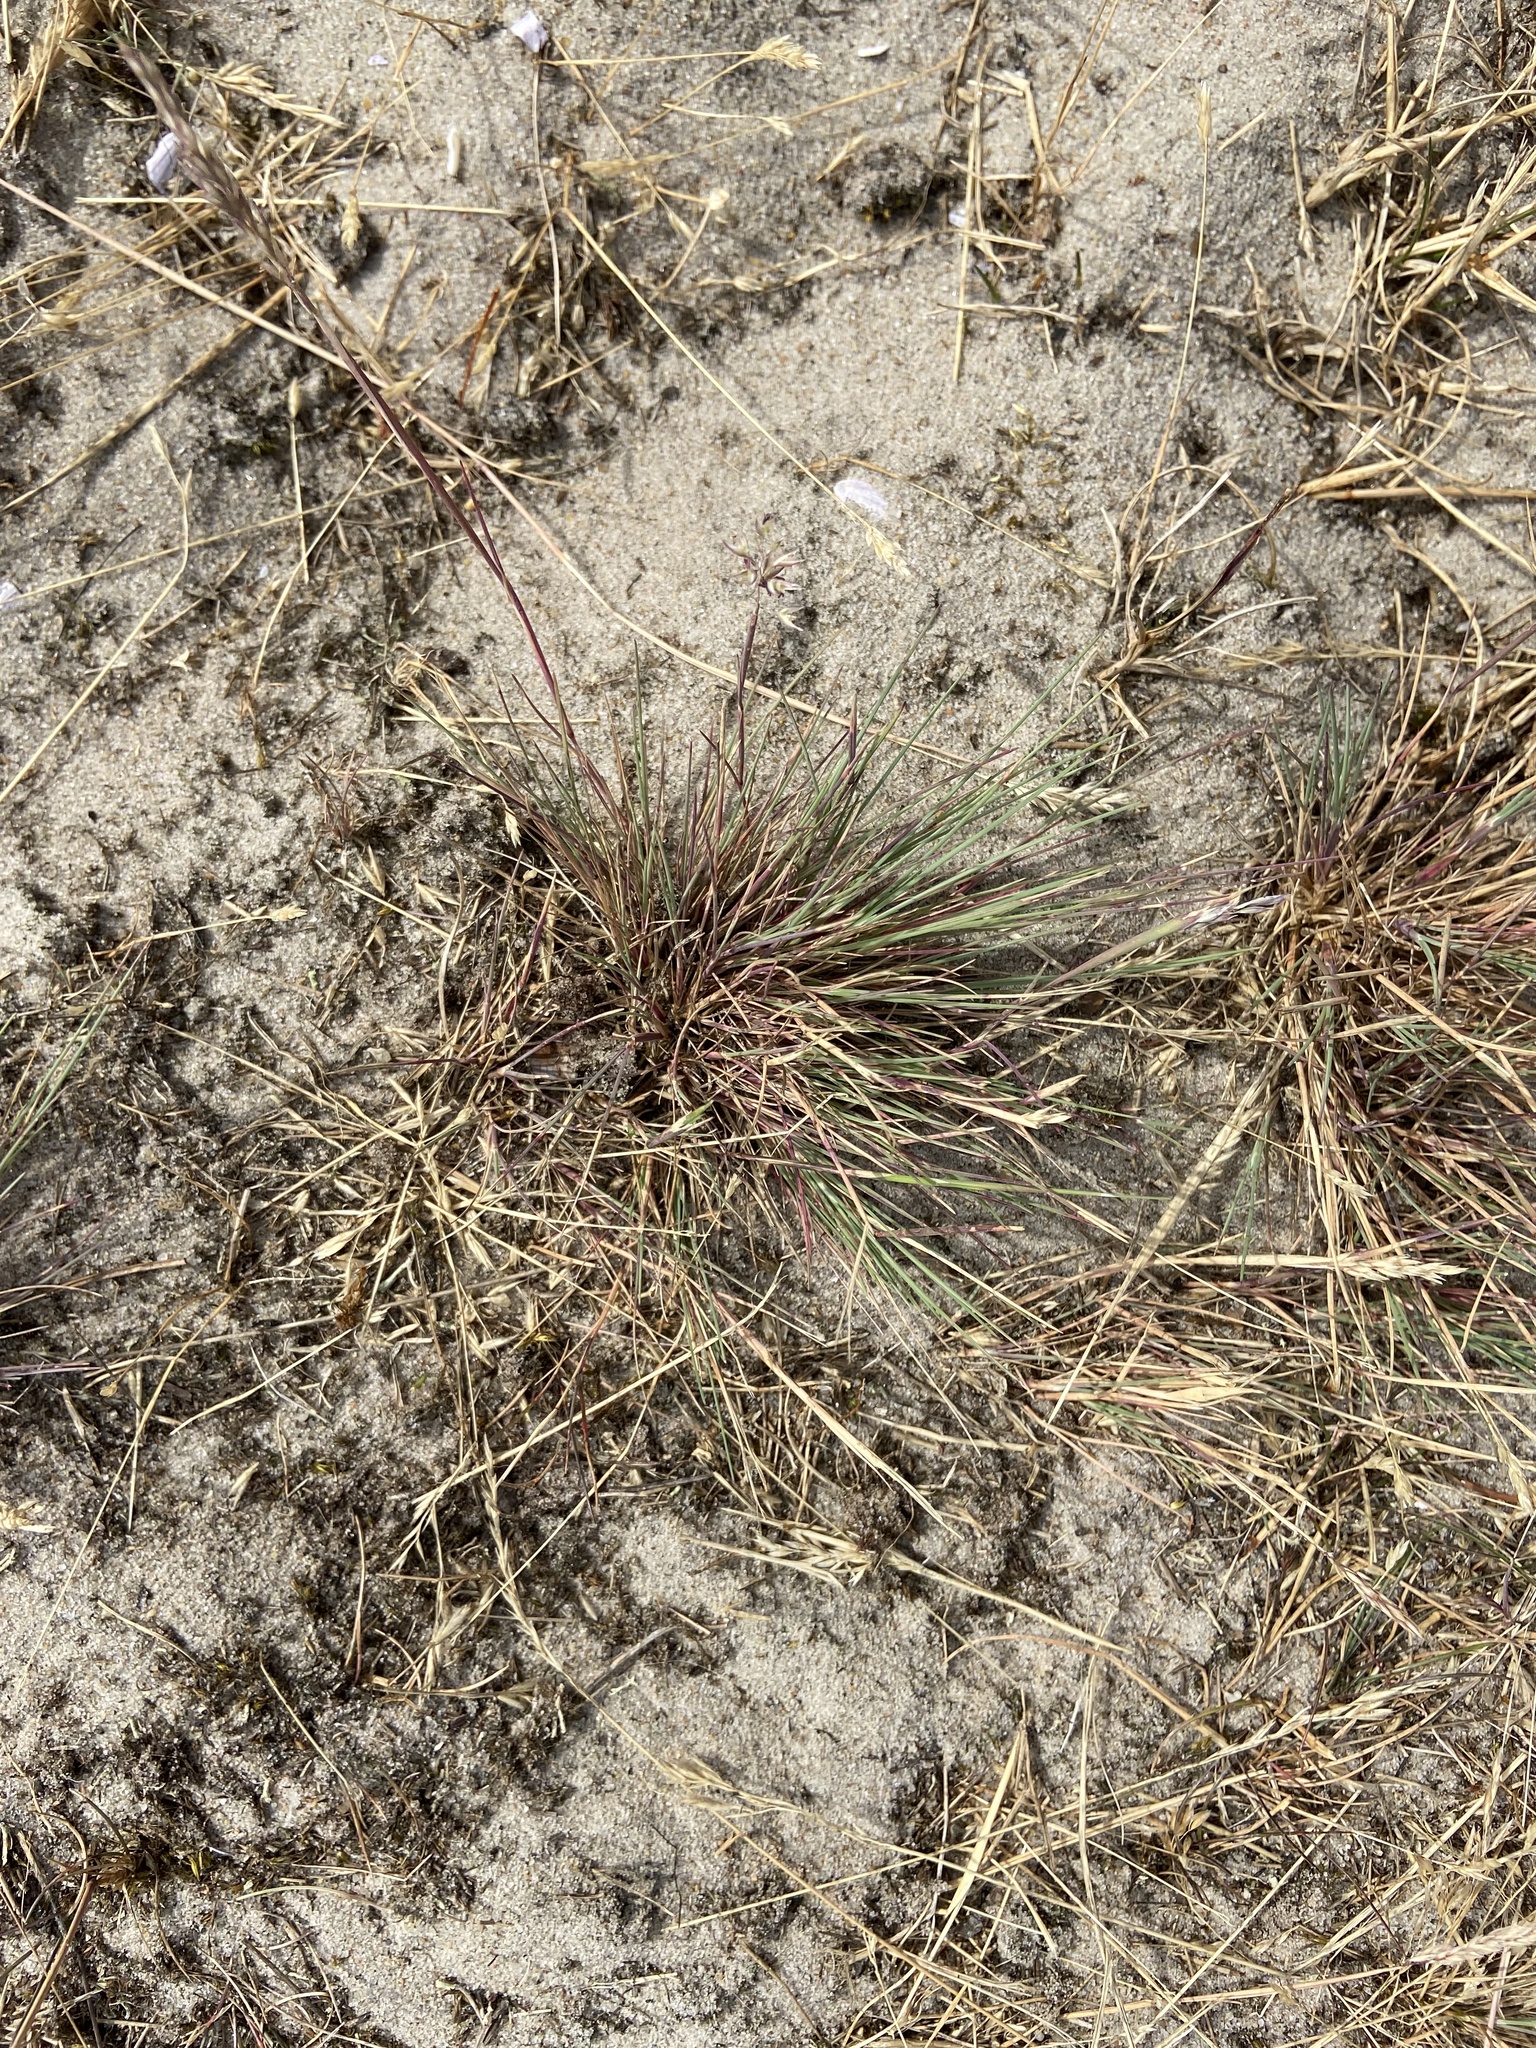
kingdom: Plantae
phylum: Tracheophyta
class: Liliopsida
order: Poales
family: Poaceae
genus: Corynephorus
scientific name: Corynephorus canescens
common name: Grey hair-grass
